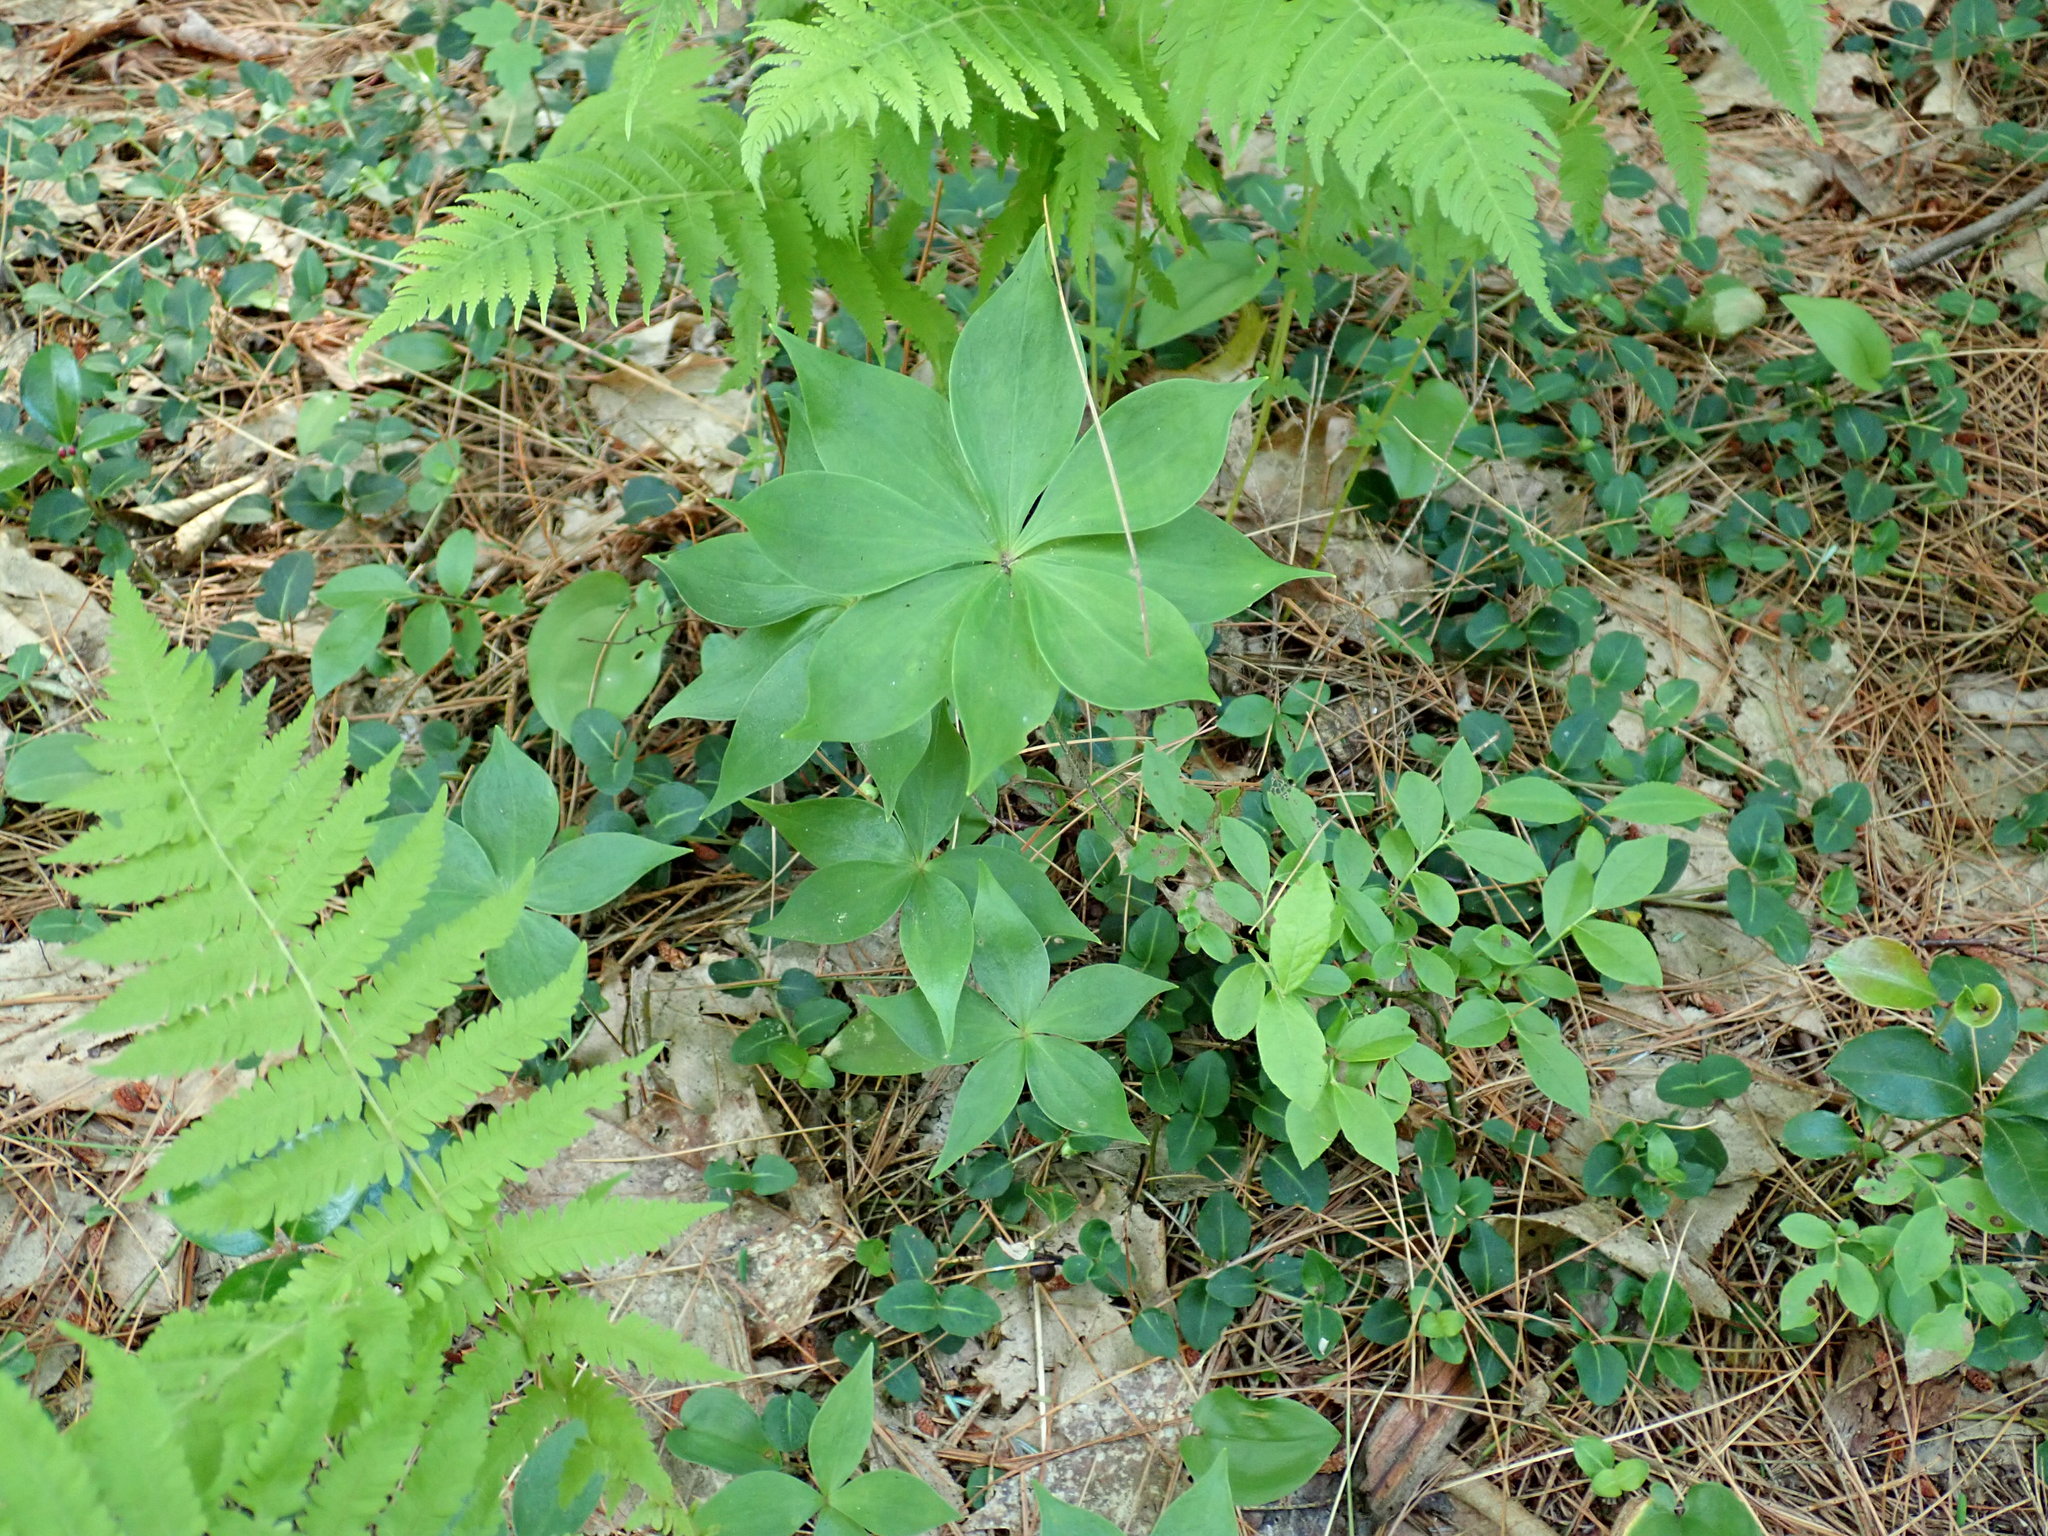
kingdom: Plantae
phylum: Tracheophyta
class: Liliopsida
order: Liliales
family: Liliaceae
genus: Medeola
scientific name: Medeola virginiana
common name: Indian cucumber-root
